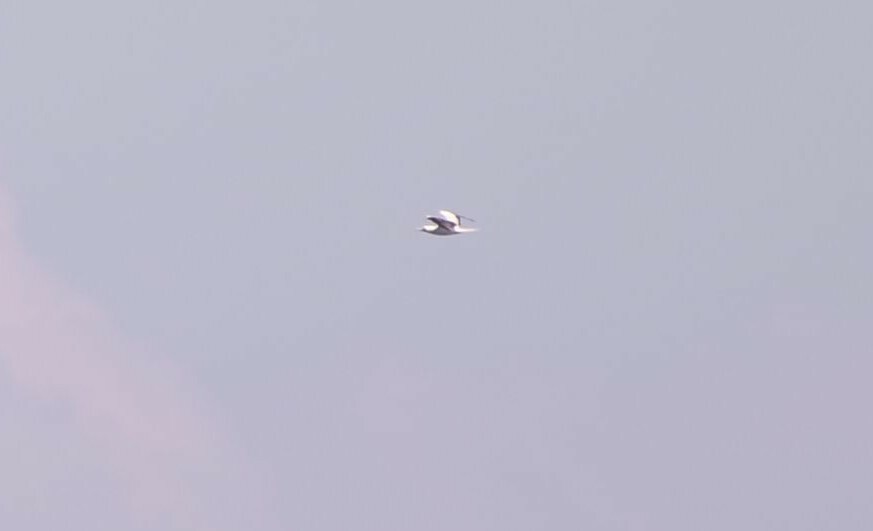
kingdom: Animalia
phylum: Chordata
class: Aves
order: Suliformes
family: Sulidae
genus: Sula
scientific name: Sula sula
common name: Red-footed booby
